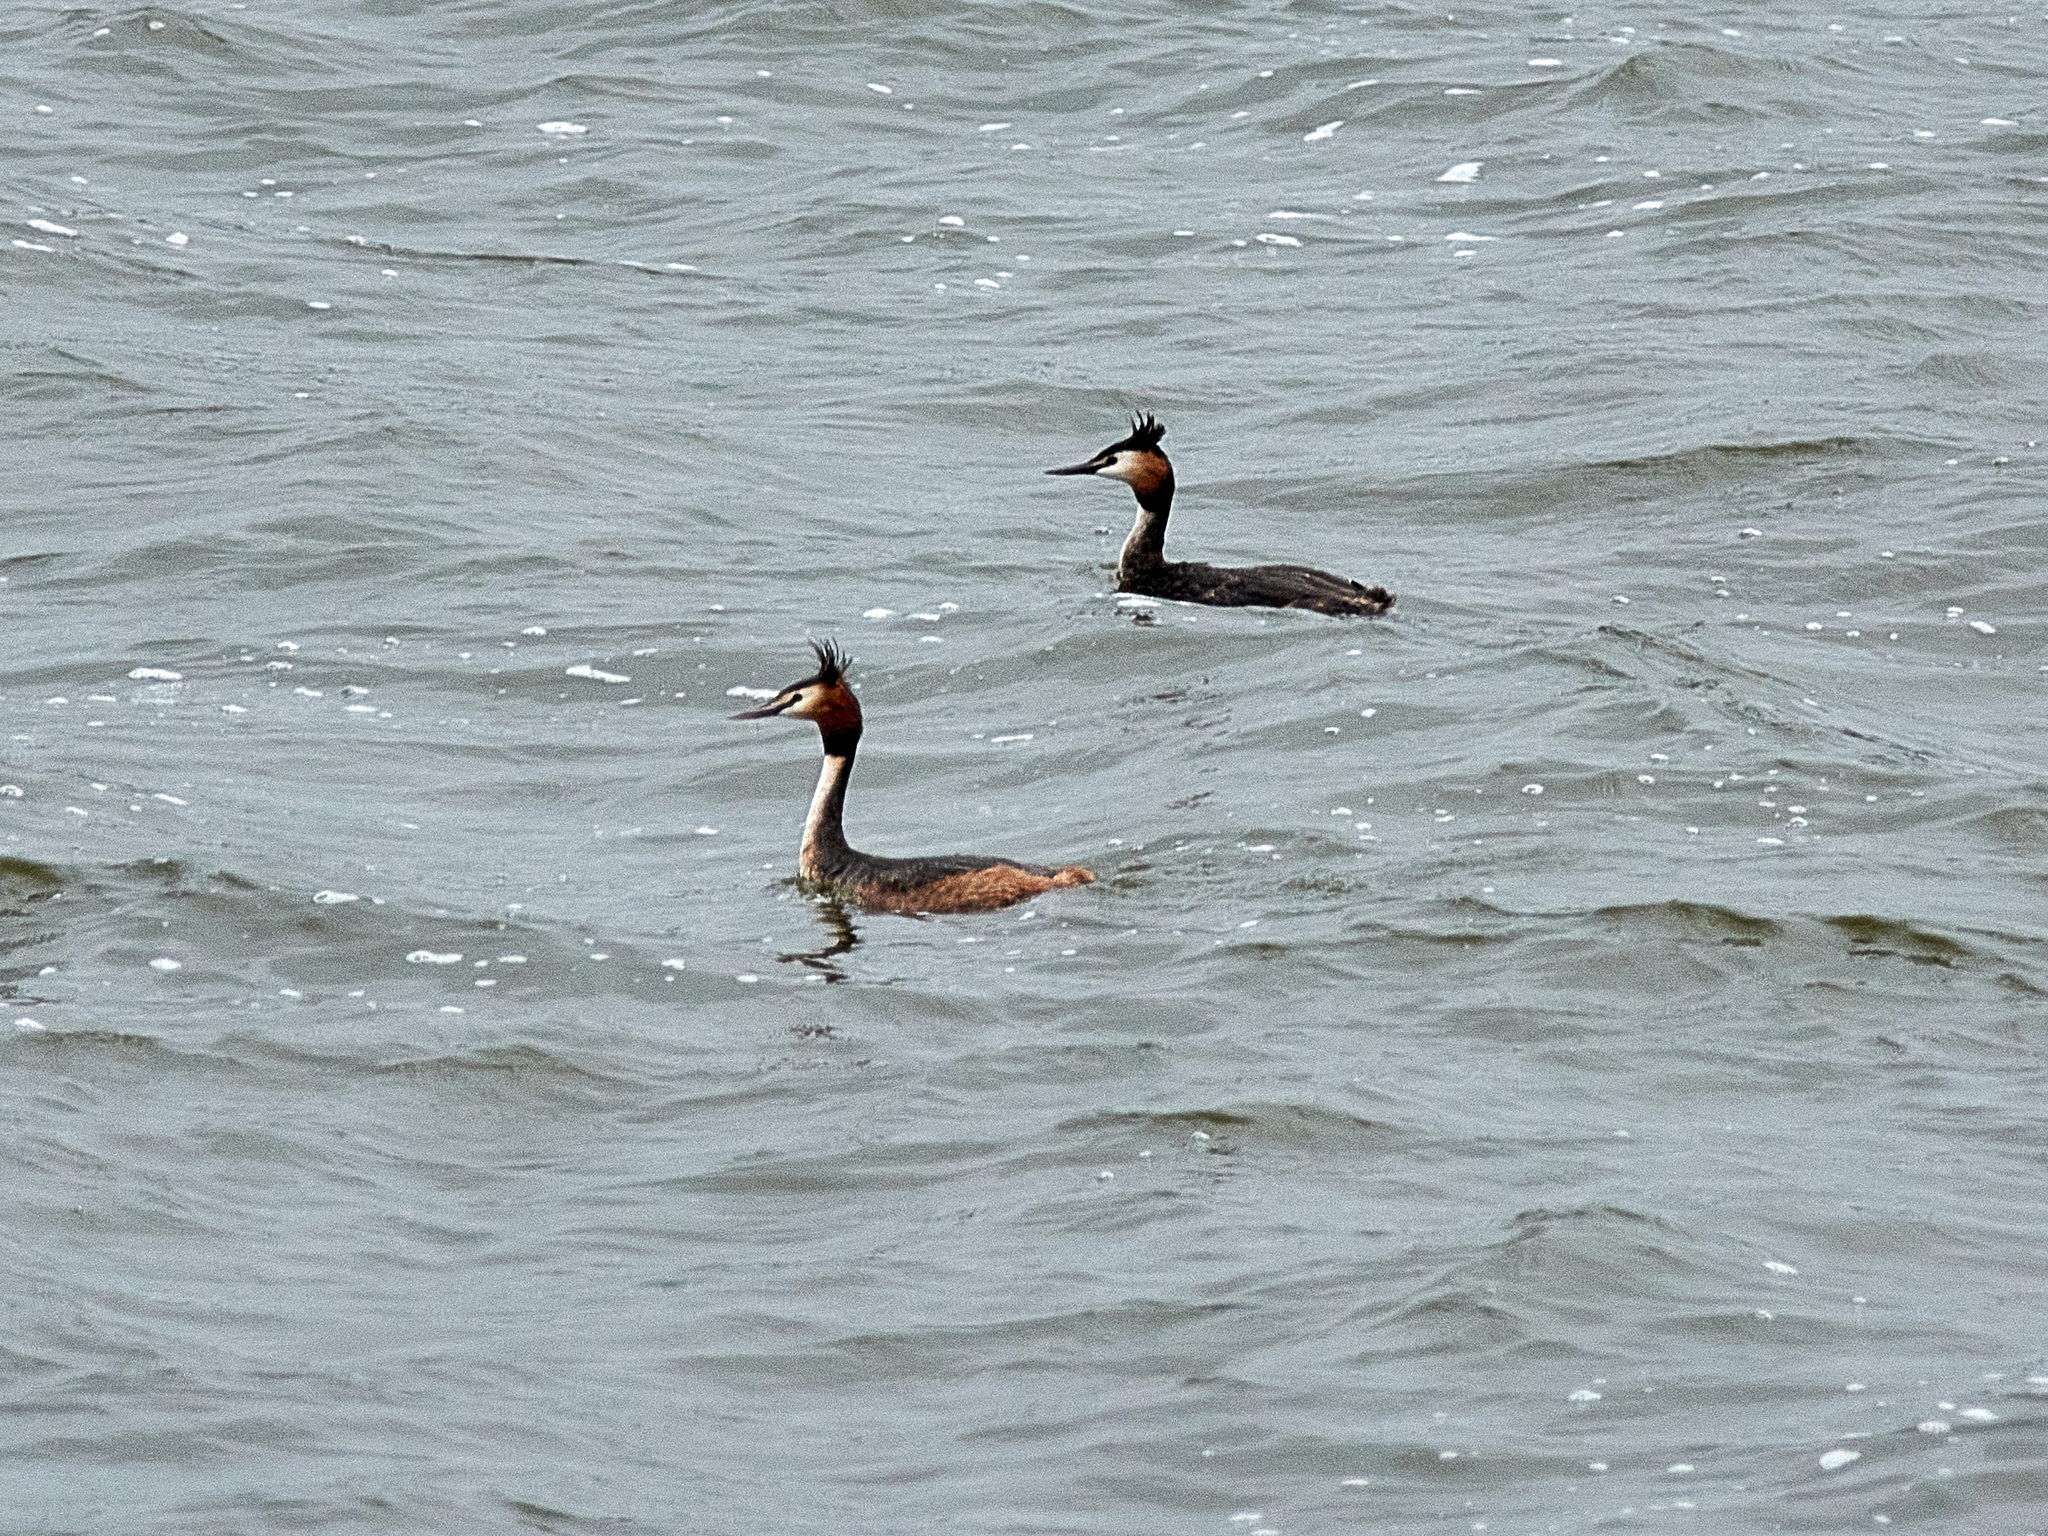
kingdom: Animalia
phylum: Chordata
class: Aves
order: Podicipediformes
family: Podicipedidae
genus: Podiceps
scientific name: Podiceps cristatus
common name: Great crested grebe
